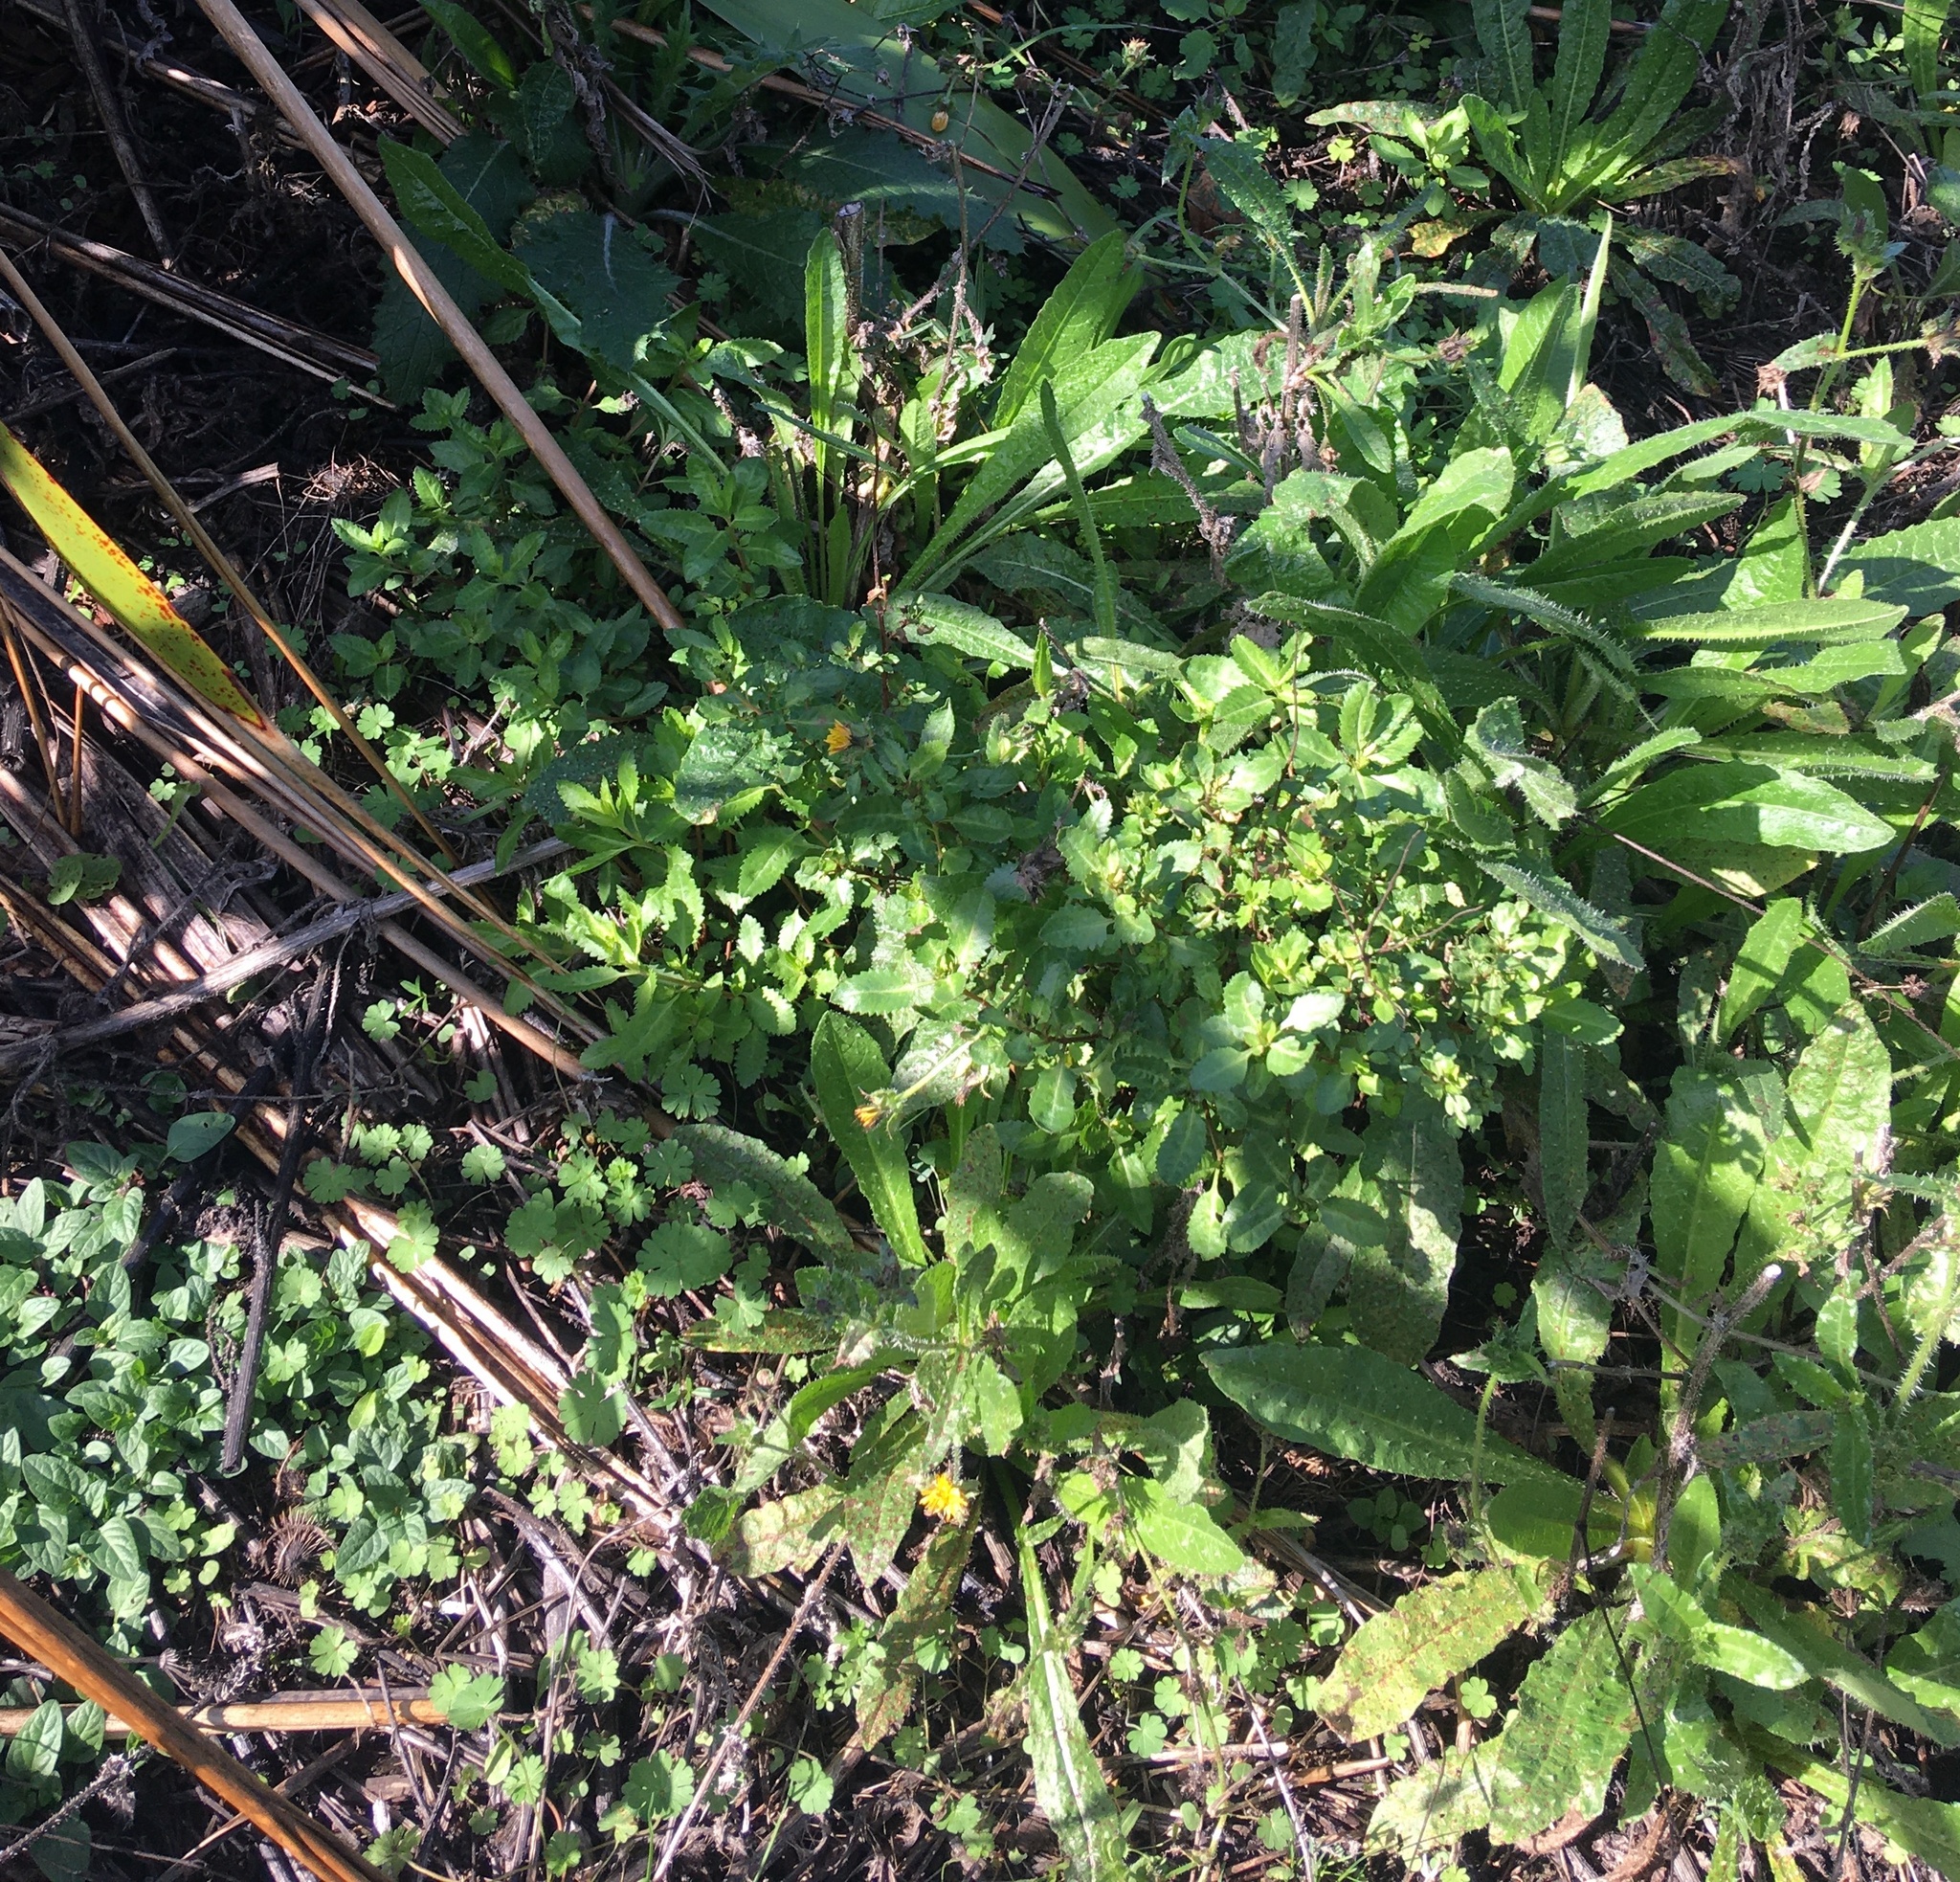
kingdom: Plantae
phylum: Tracheophyta
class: Magnoliopsida
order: Saxifragales
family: Haloragaceae
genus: Haloragis
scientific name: Haloragis erecta
